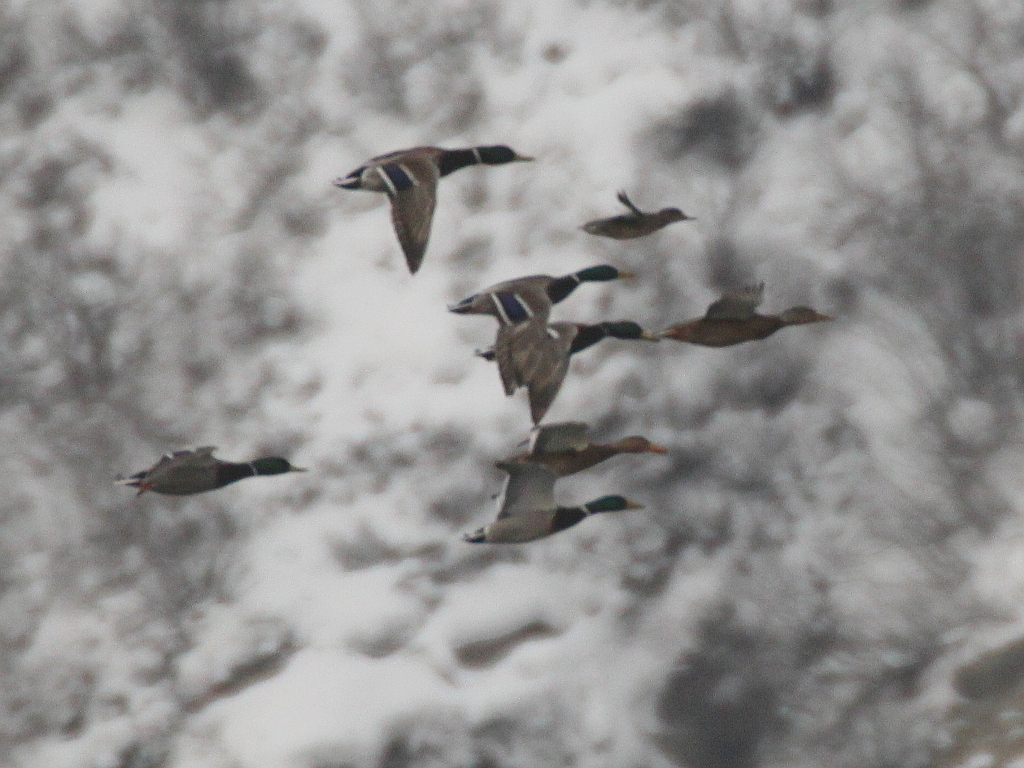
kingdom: Animalia
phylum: Chordata
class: Aves
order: Anseriformes
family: Anatidae
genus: Anas
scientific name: Anas platyrhynchos
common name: Mallard
